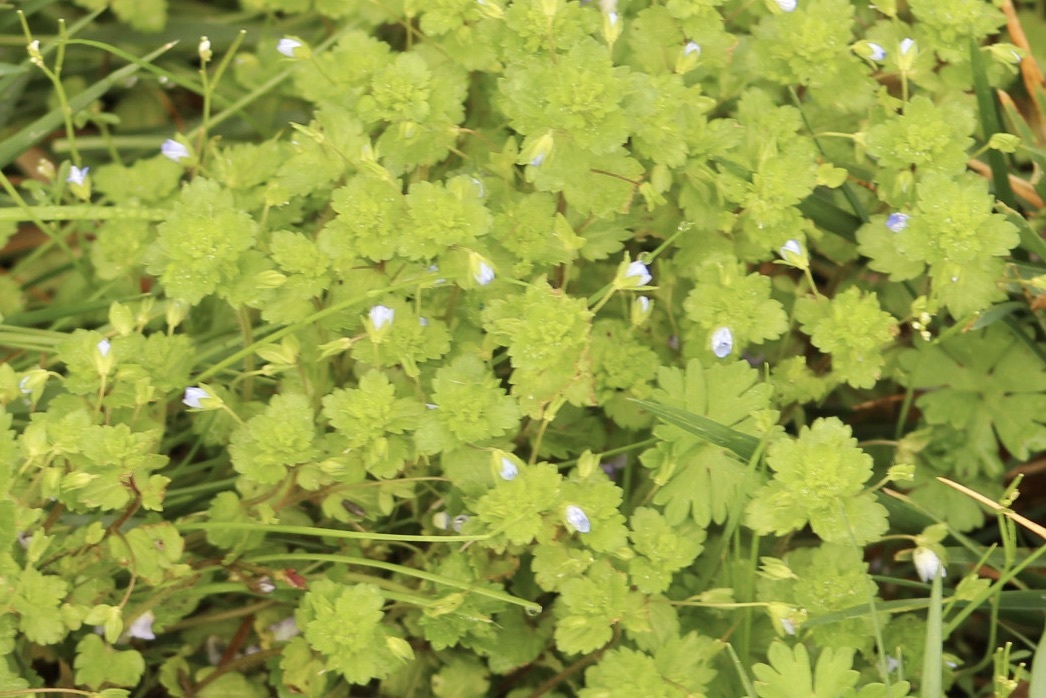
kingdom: Plantae
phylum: Tracheophyta
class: Magnoliopsida
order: Lamiales
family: Plantaginaceae
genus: Veronica
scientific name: Veronica persica
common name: Common field-speedwell
